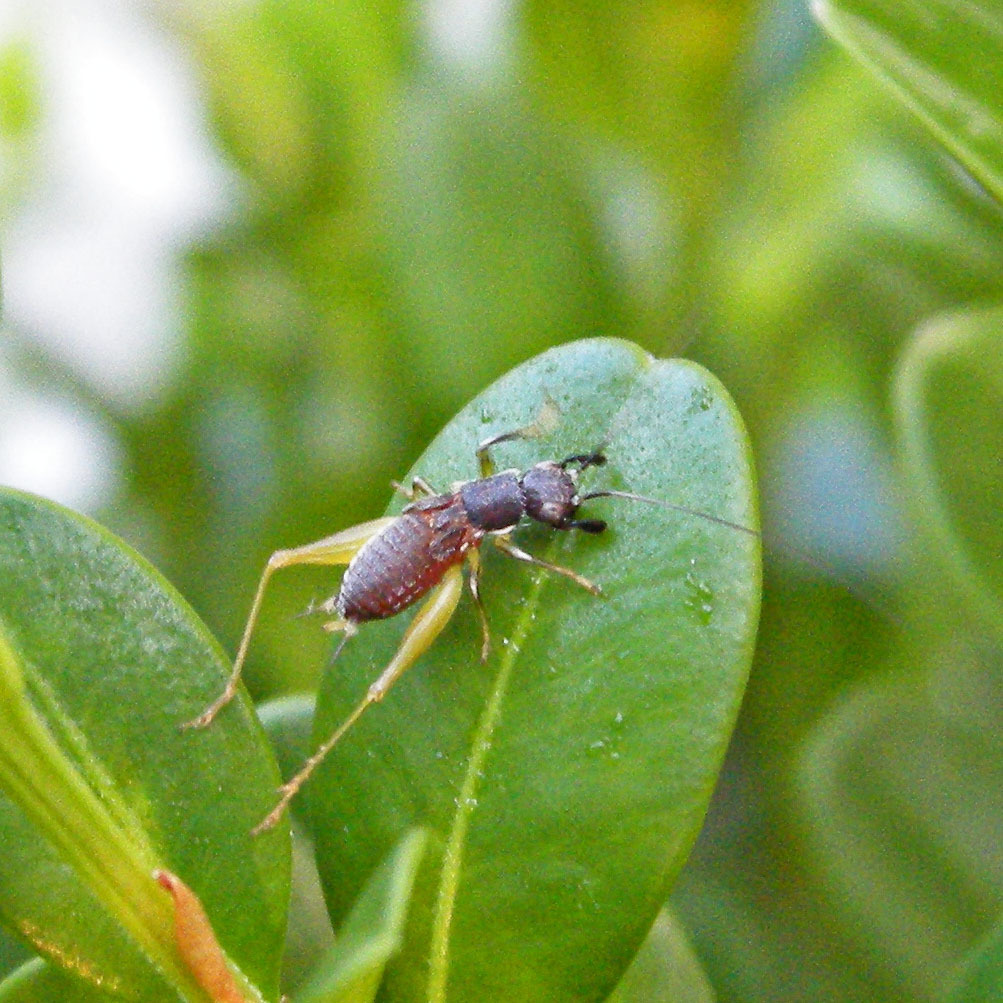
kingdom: Animalia
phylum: Arthropoda
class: Insecta
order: Orthoptera
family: Trigonidiidae
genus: Phyllopalpus
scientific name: Phyllopalpus pulchellus
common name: Handsome trig
